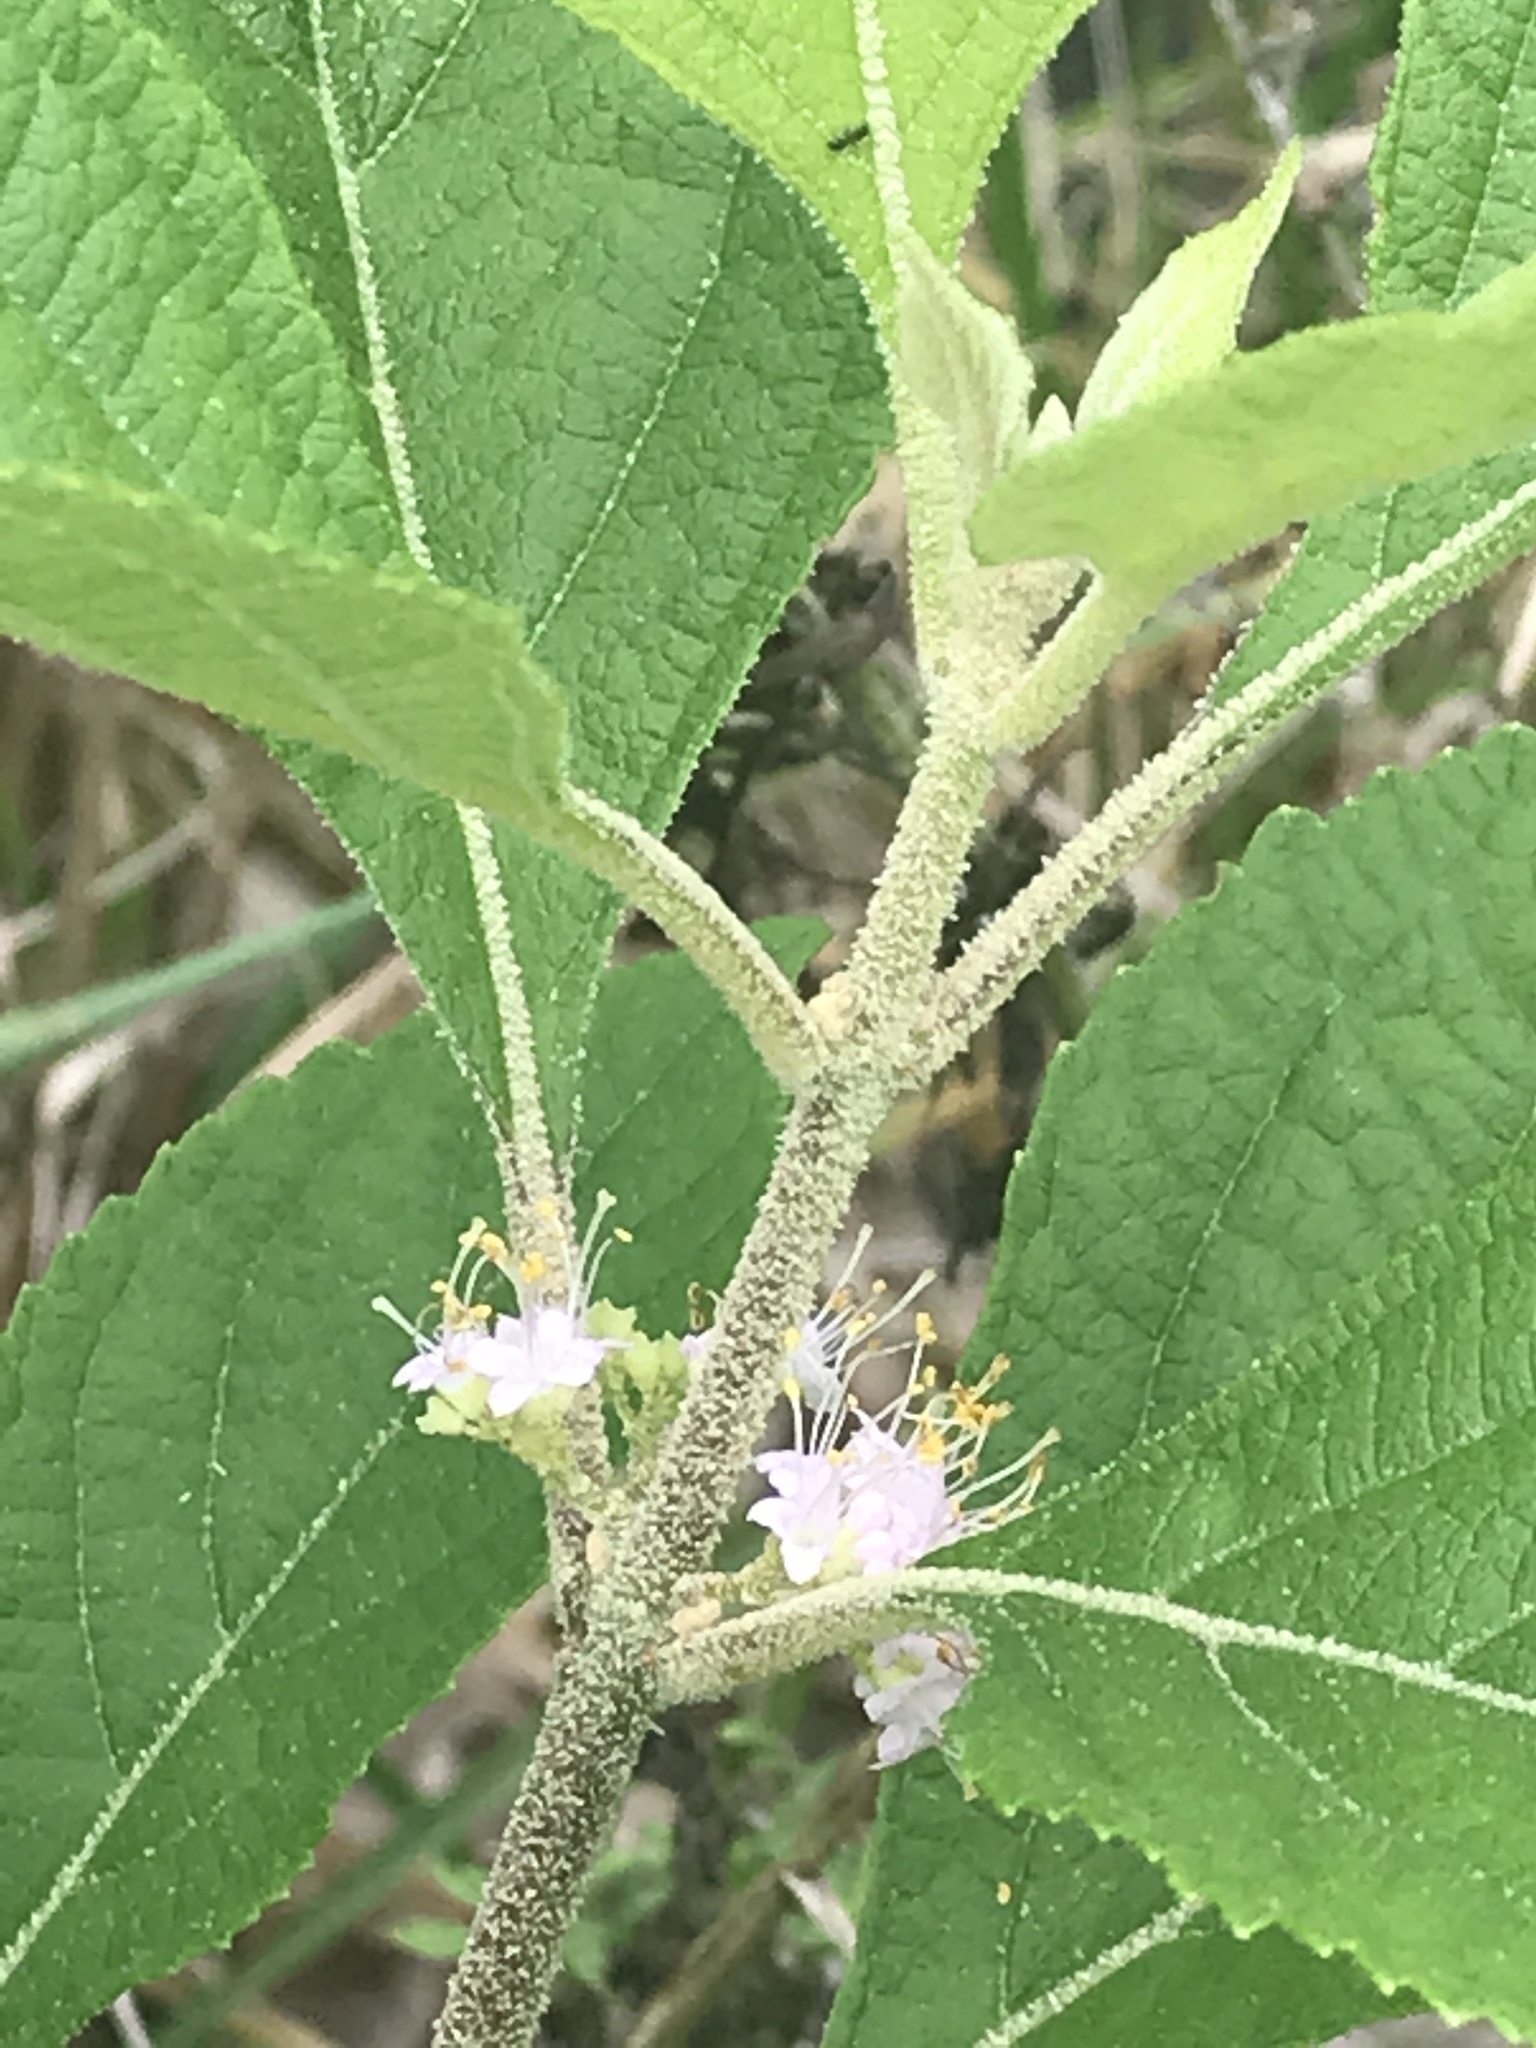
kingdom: Plantae
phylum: Tracheophyta
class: Magnoliopsida
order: Lamiales
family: Lamiaceae
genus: Callicarpa
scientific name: Callicarpa americana
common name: American beautyberry
